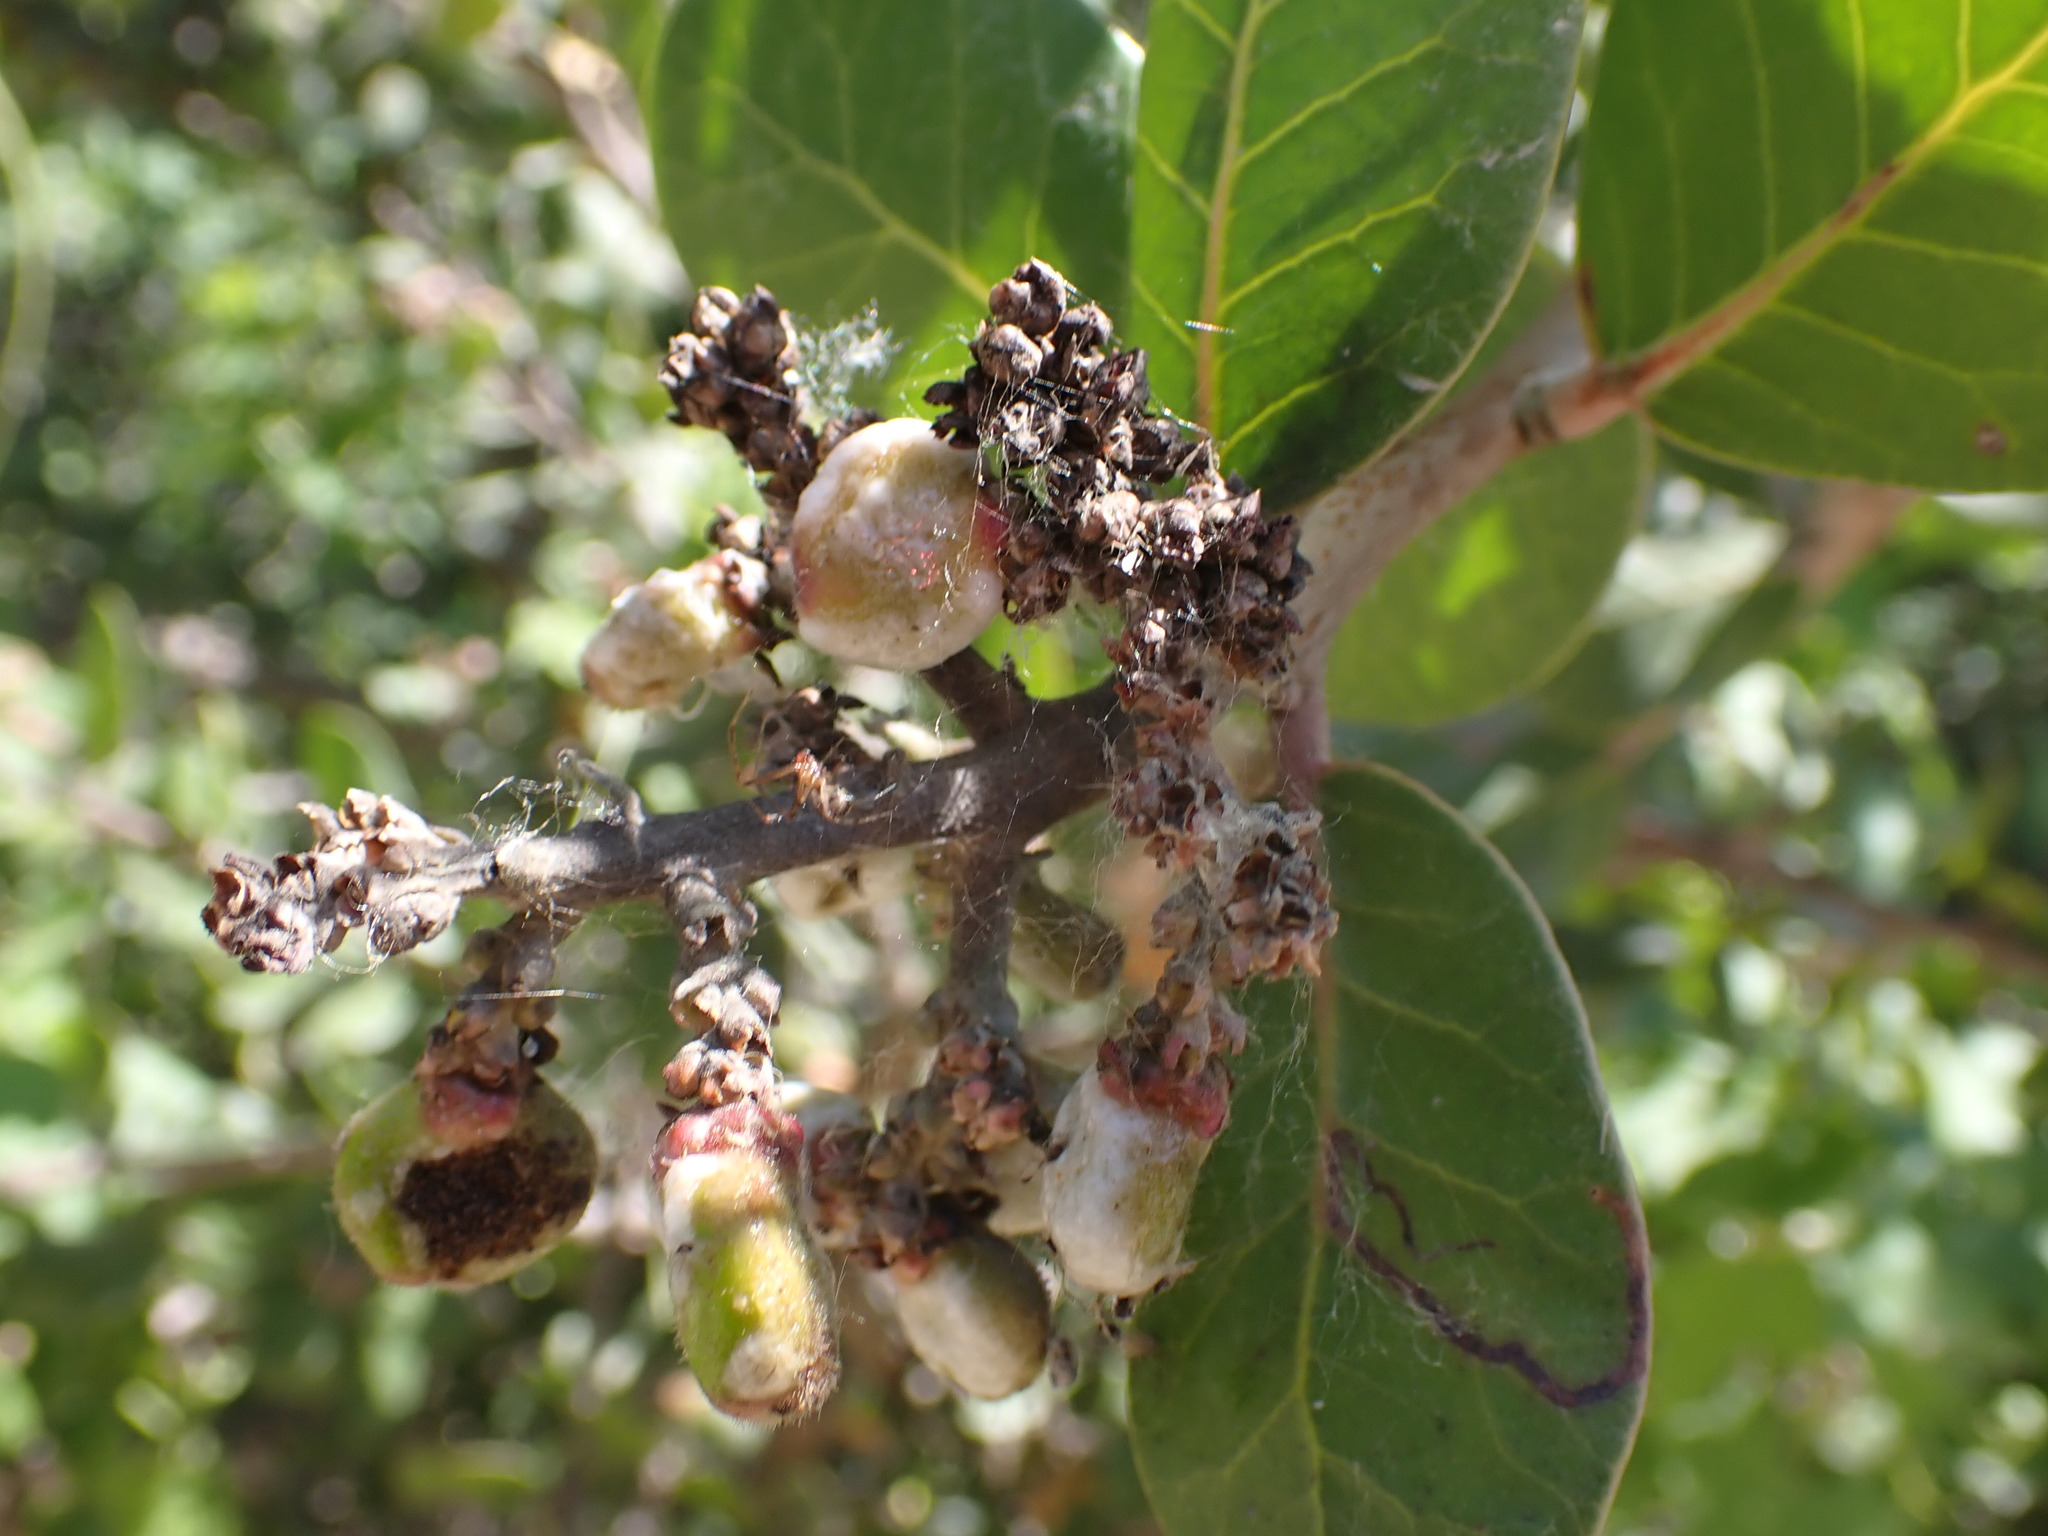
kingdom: Plantae
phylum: Tracheophyta
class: Magnoliopsida
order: Sapindales
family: Anacardiaceae
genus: Rhus
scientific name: Rhus integrifolia
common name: Lemonade sumac
